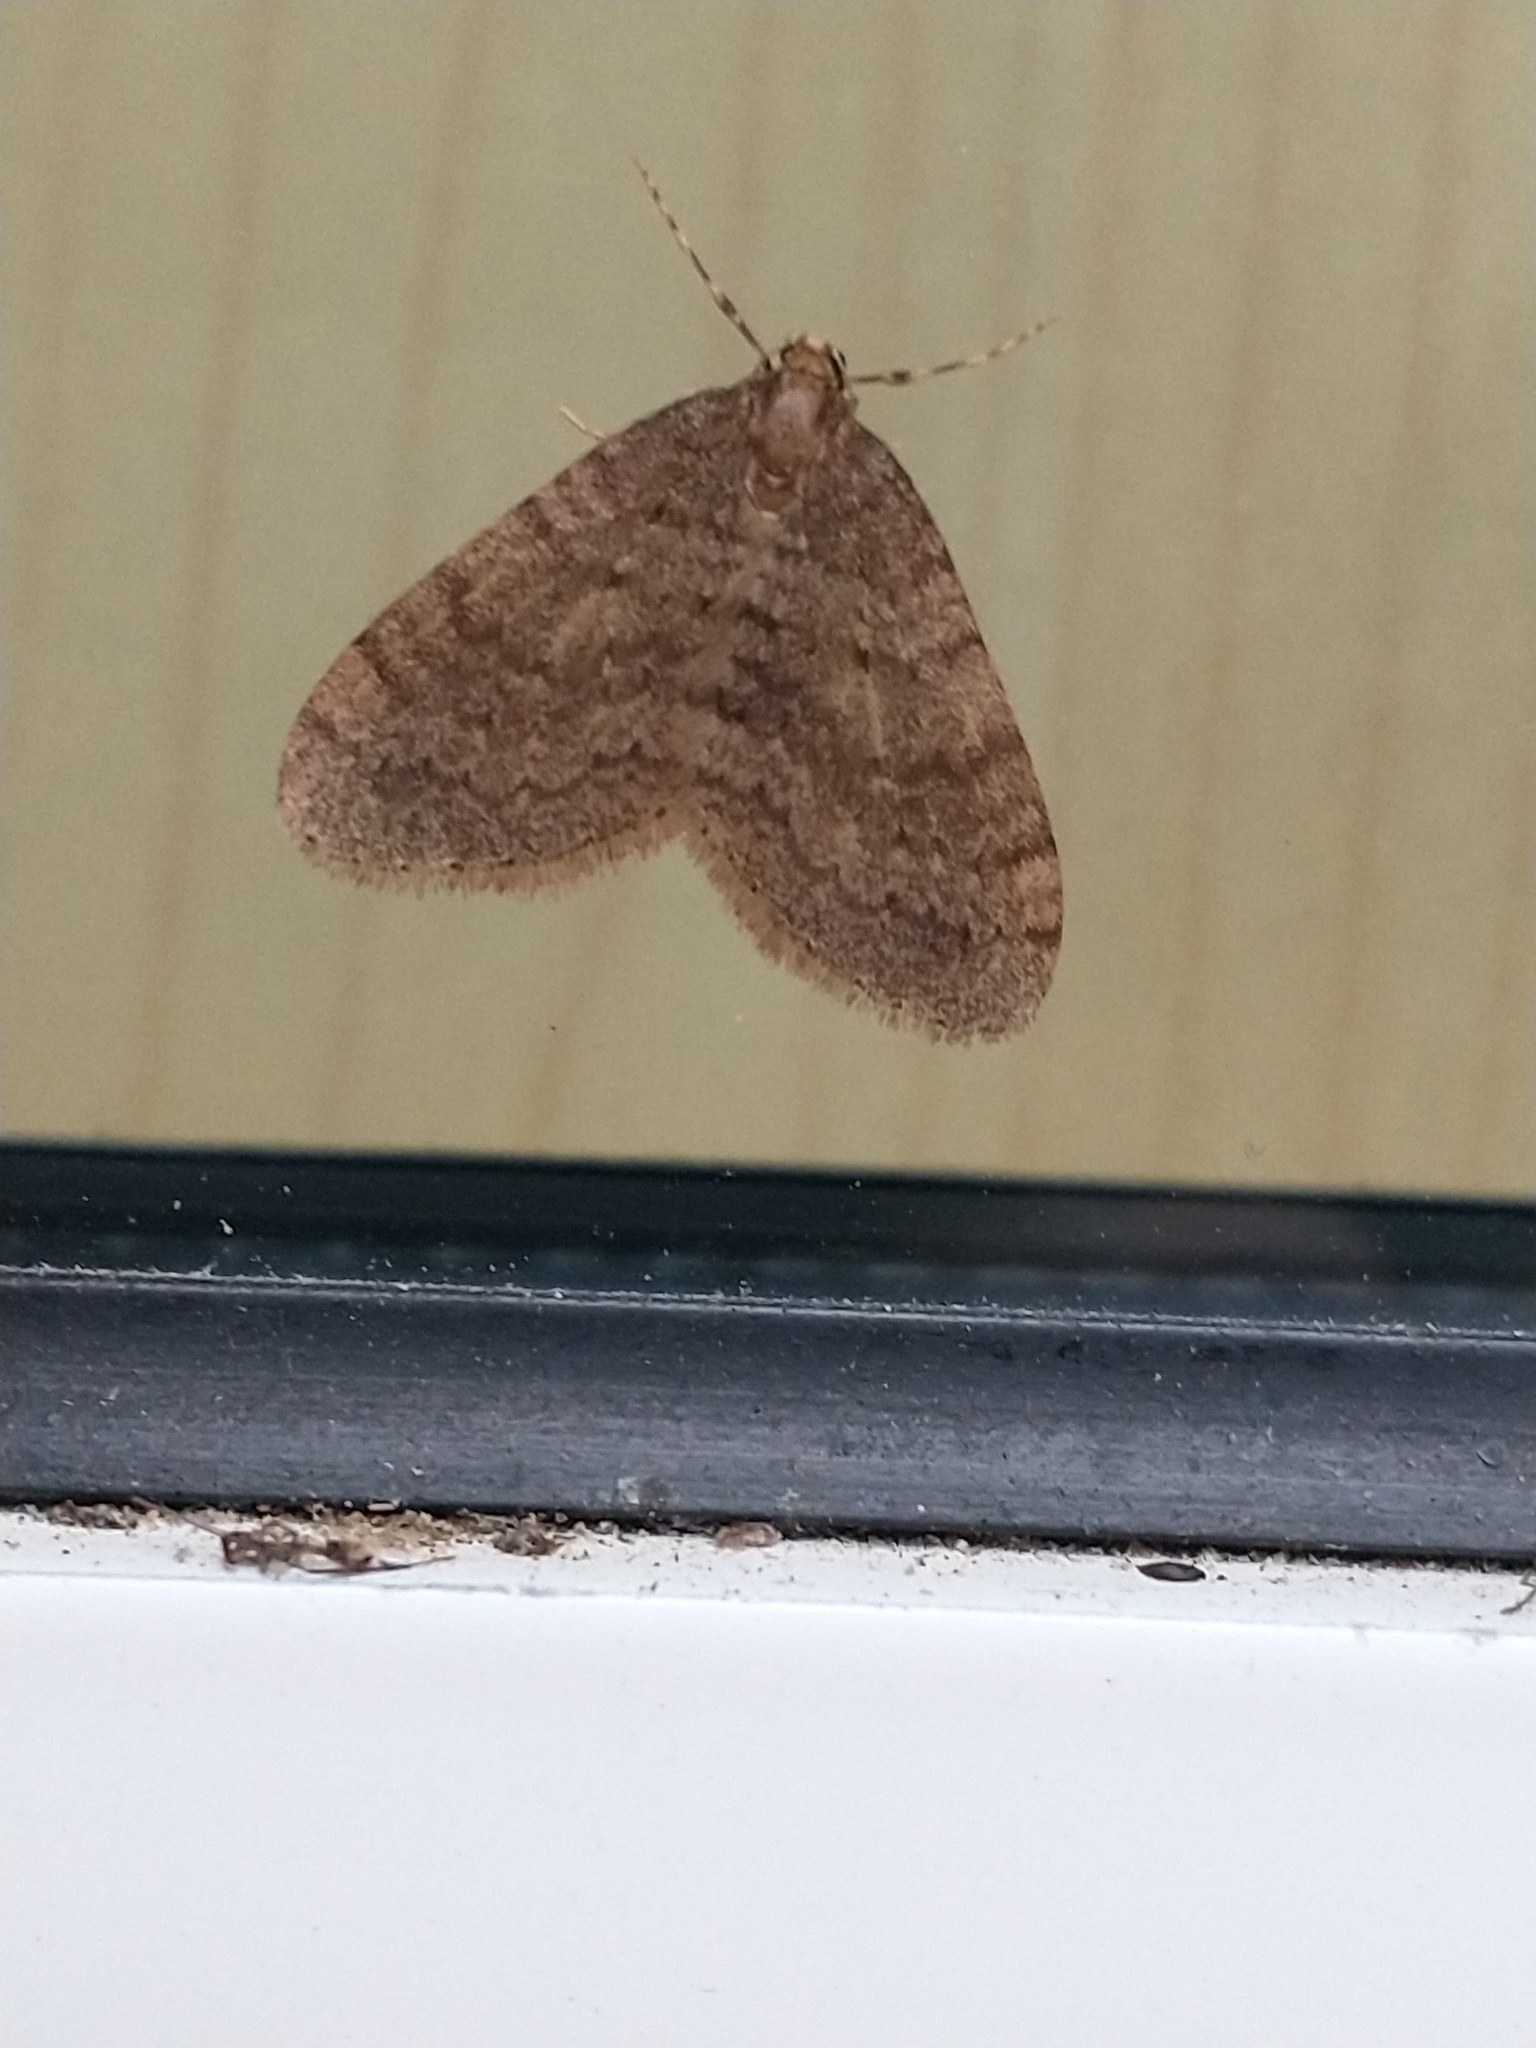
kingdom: Animalia
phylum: Arthropoda
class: Insecta
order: Lepidoptera
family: Geometridae
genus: Operophtera
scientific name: Operophtera brumata
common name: Winter moth
